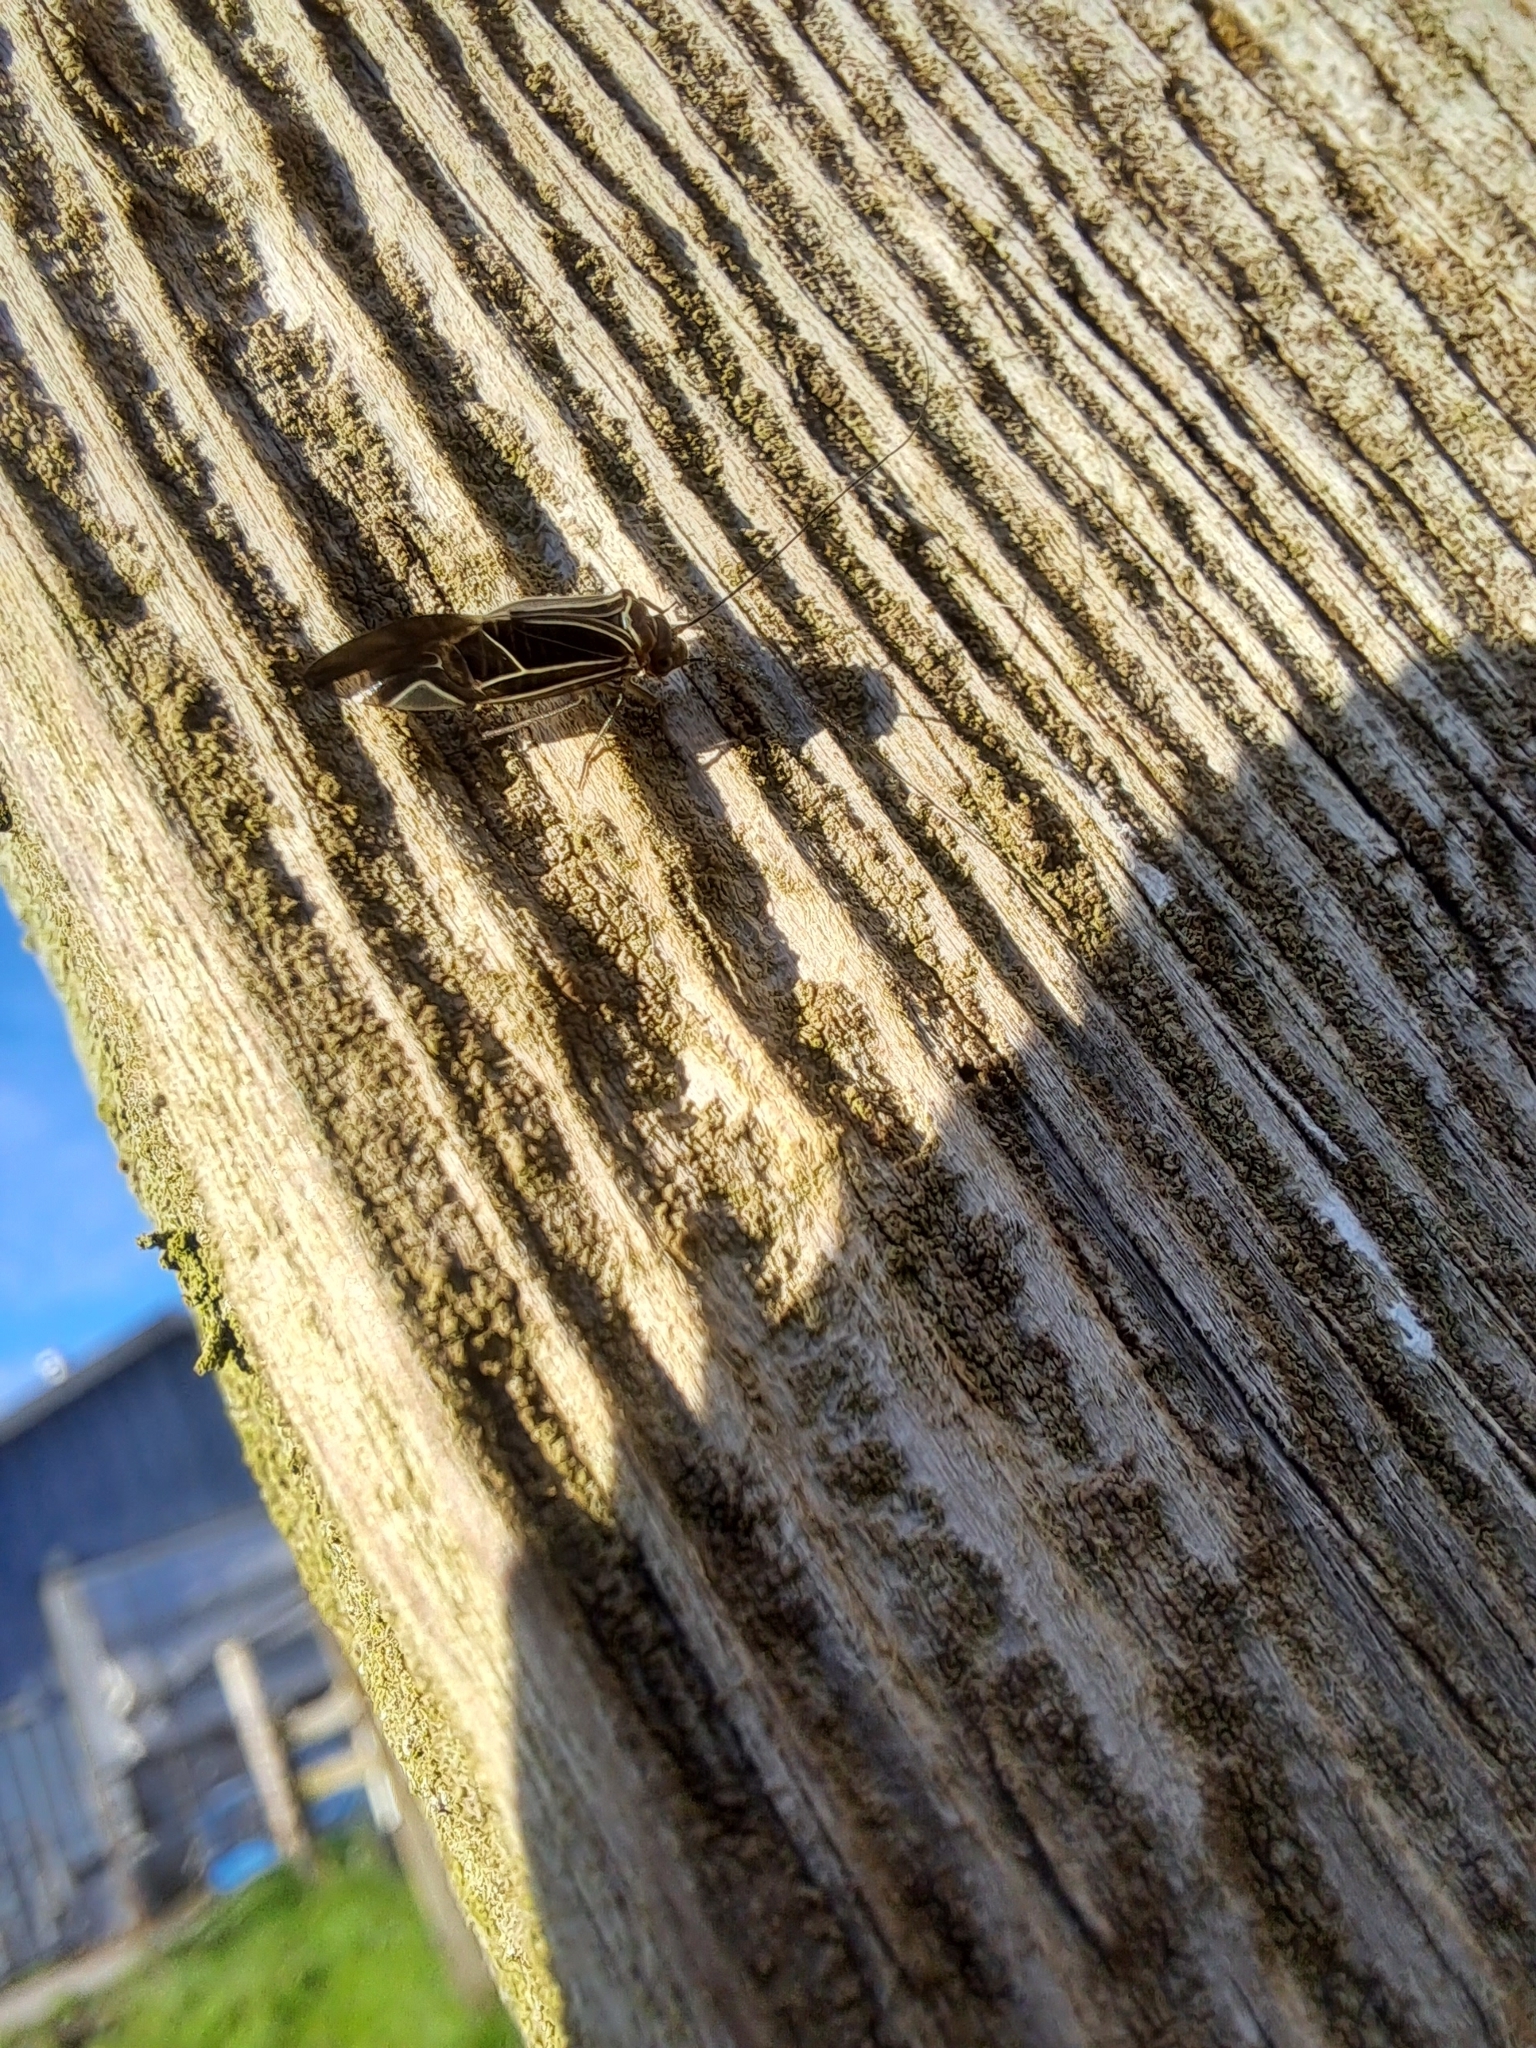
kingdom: Animalia
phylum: Arthropoda
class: Insecta
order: Psocodea
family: Psocidae
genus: Cerastipsocus
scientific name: Cerastipsocus venosus
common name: Tree cattle
